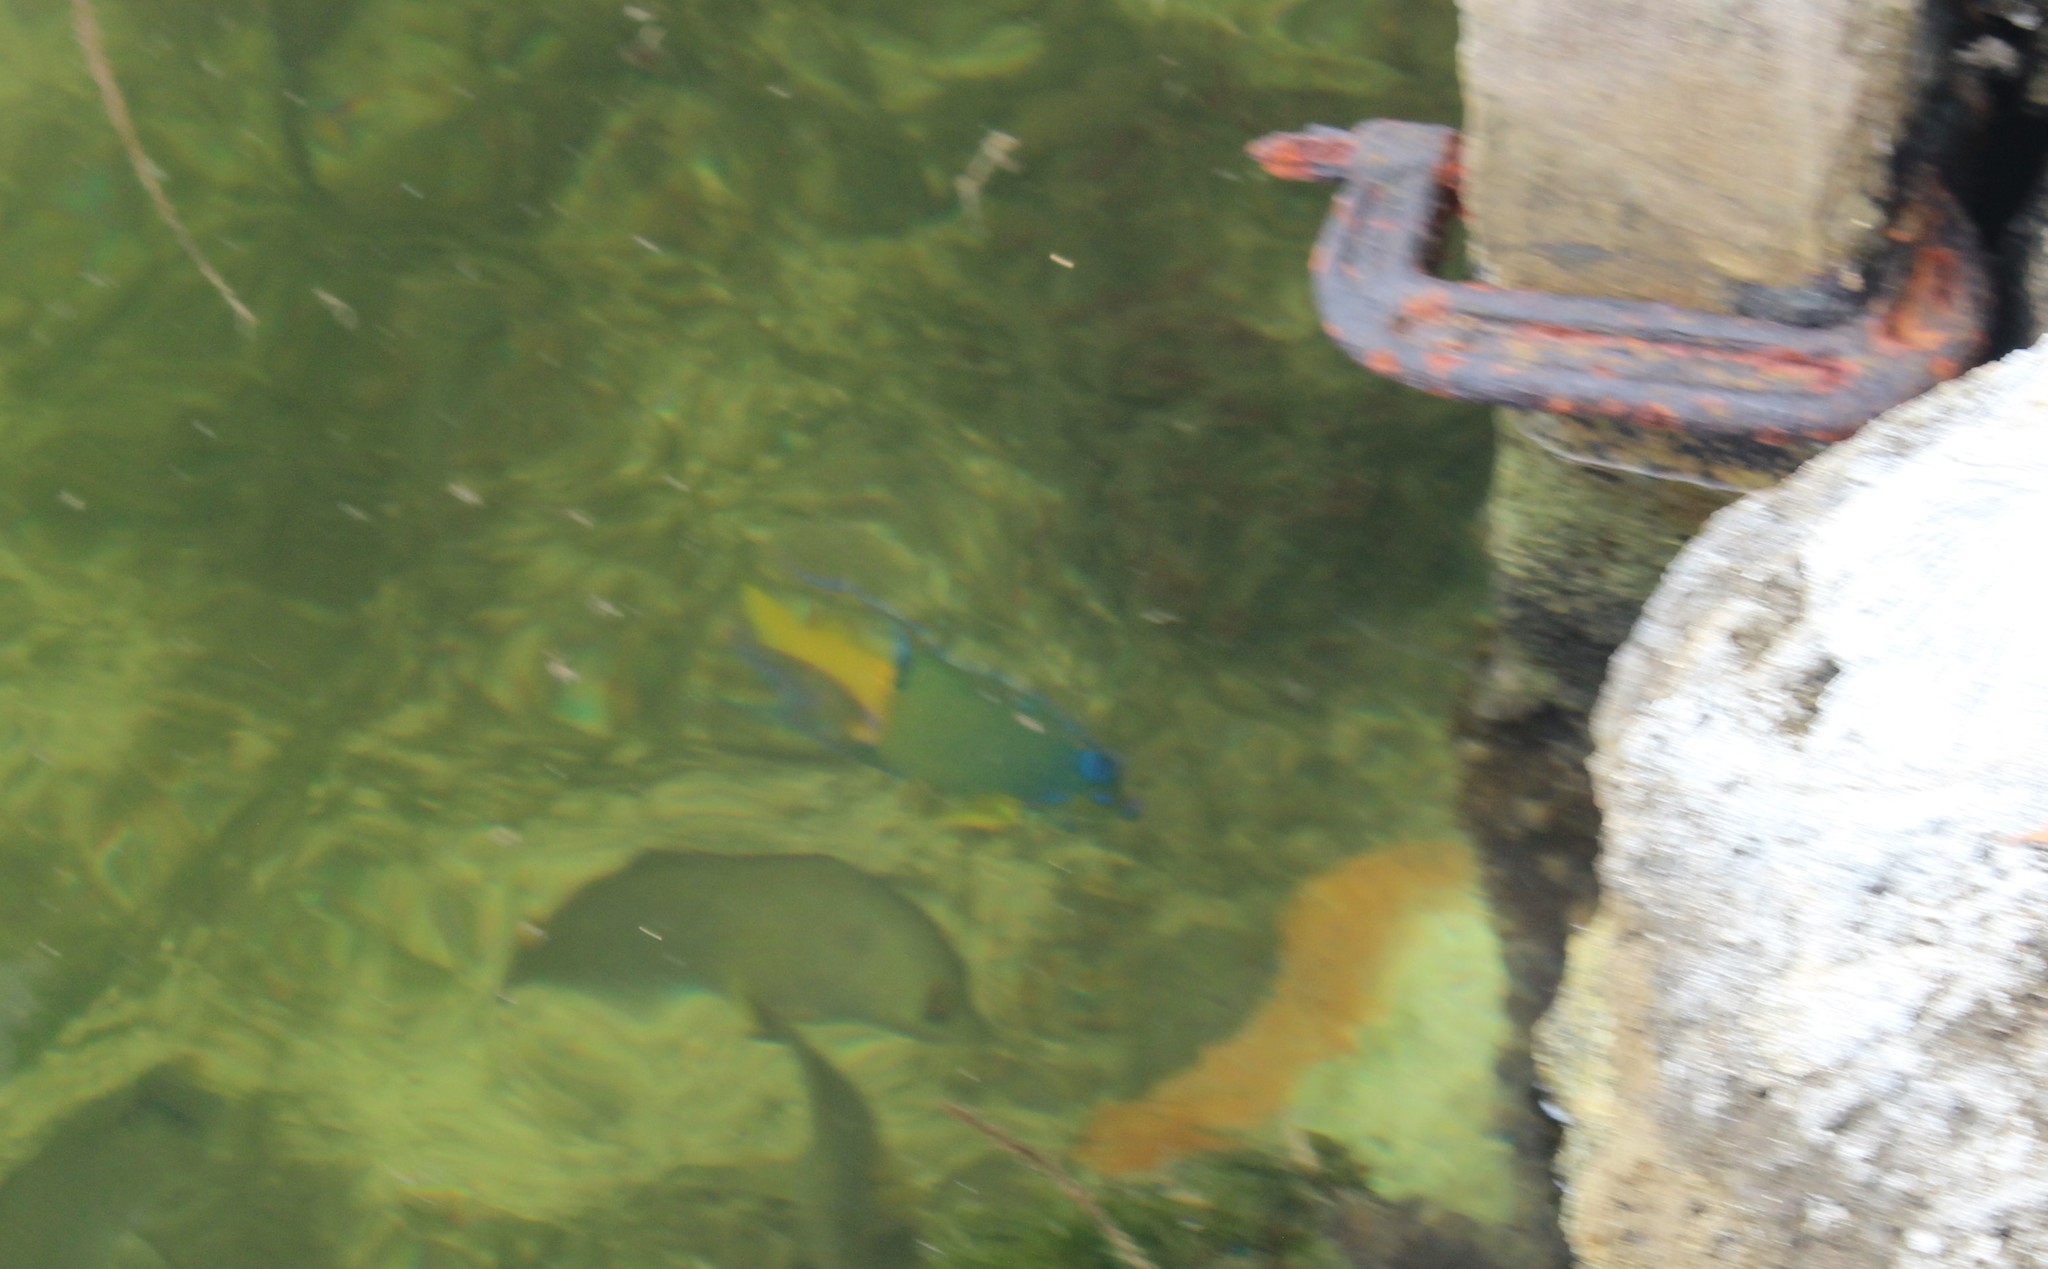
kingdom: Animalia
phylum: Chordata
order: Perciformes
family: Pomacanthidae
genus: Holacanthus
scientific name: Holacanthus ciliaris
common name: Queen angelfish
